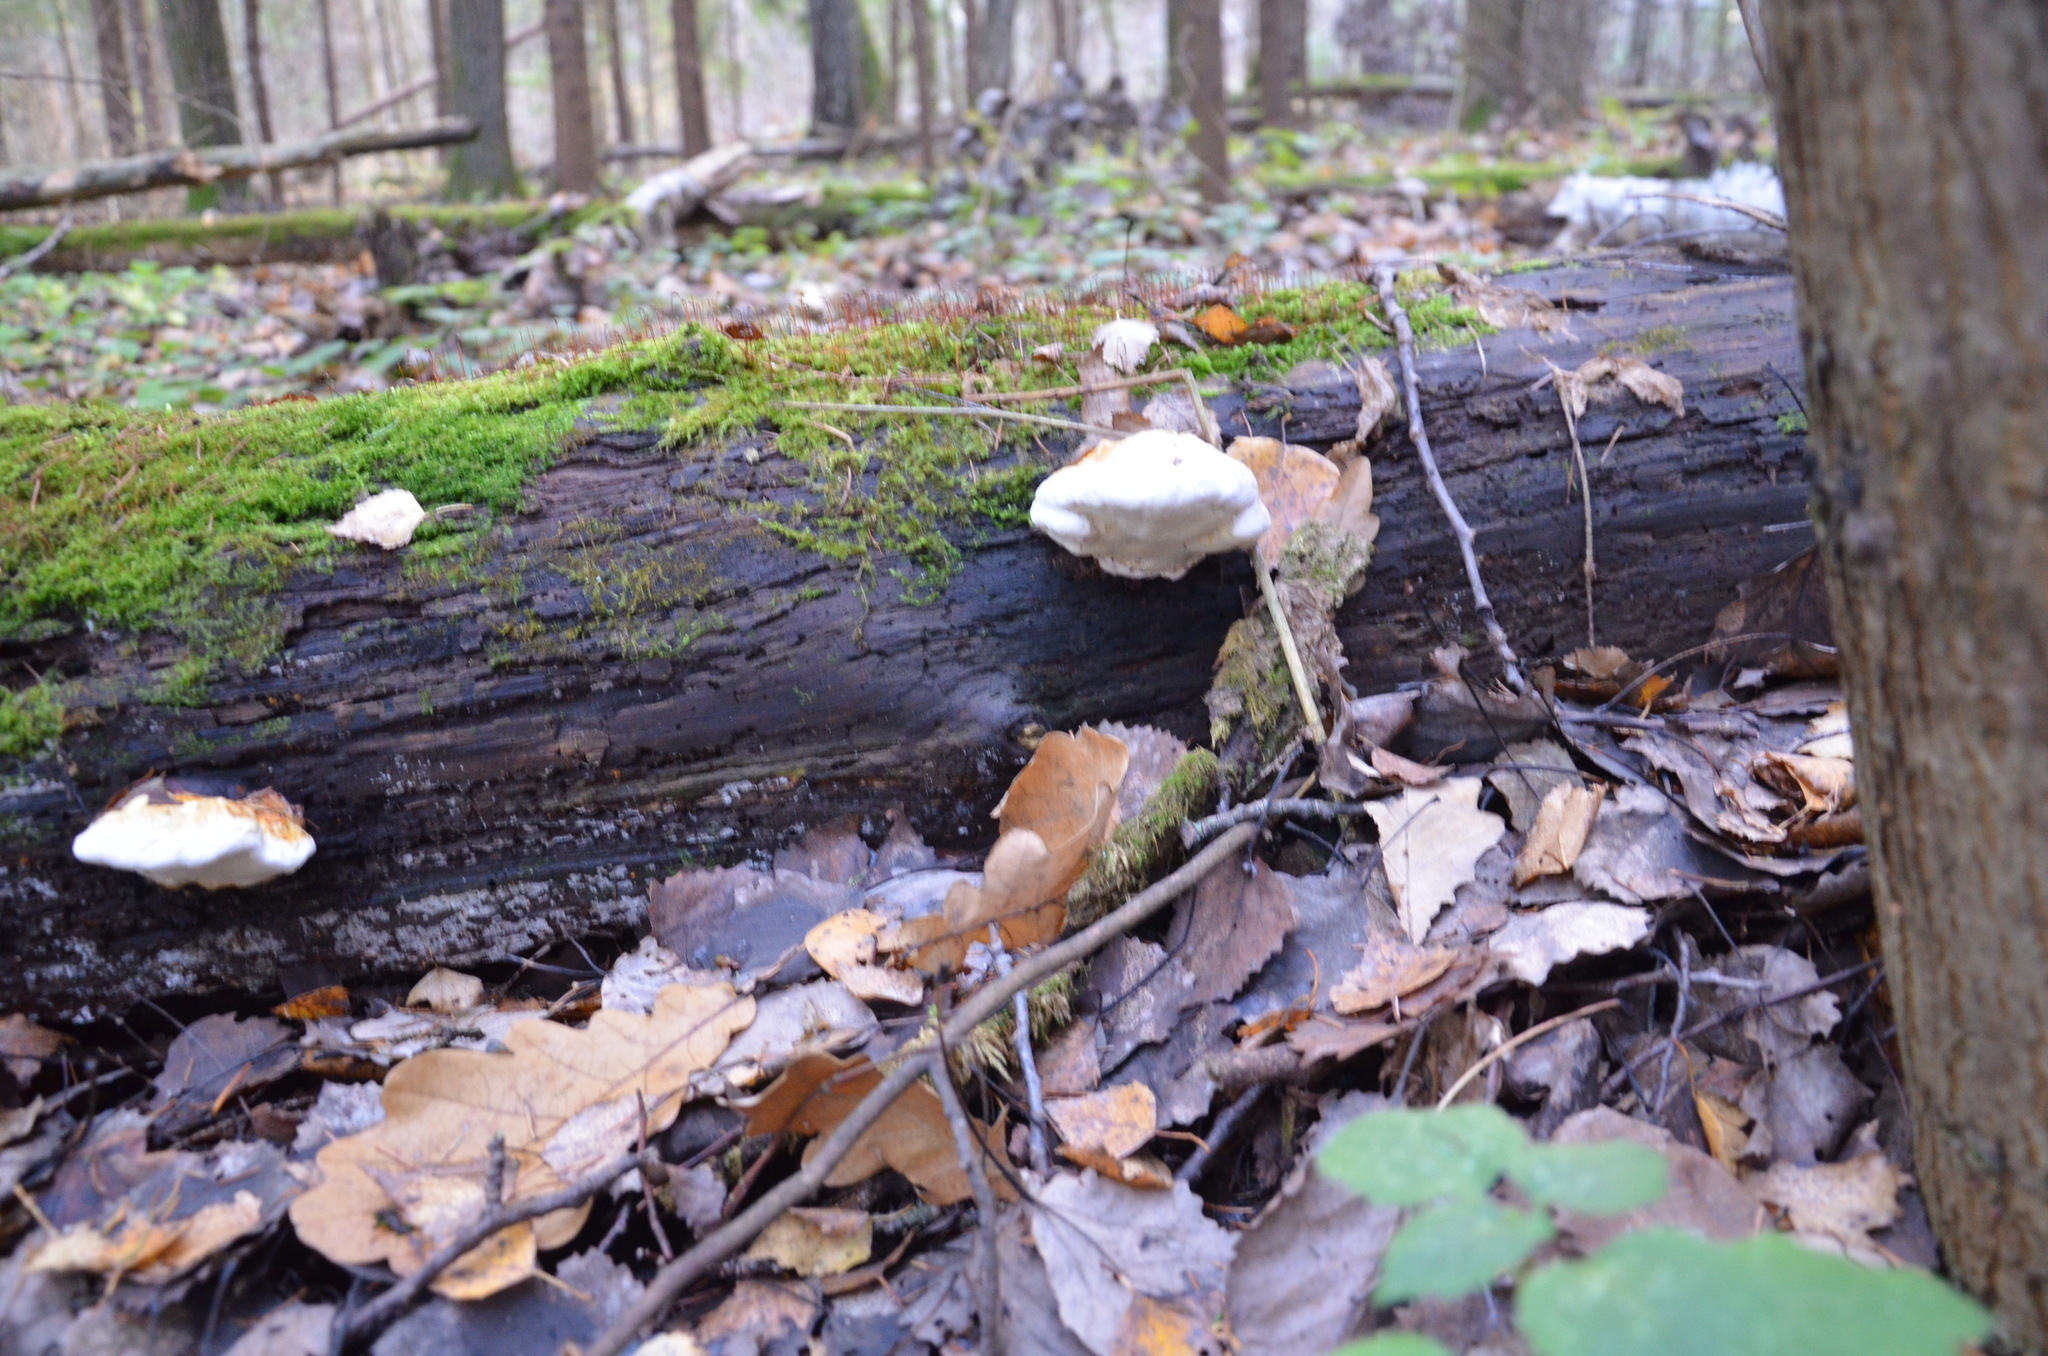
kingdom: Fungi
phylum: Basidiomycota
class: Agaricomycetes
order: Polyporales
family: Fomitopsidaceae
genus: Fomitopsis
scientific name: Fomitopsis pinicola
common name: Red-belted bracket
